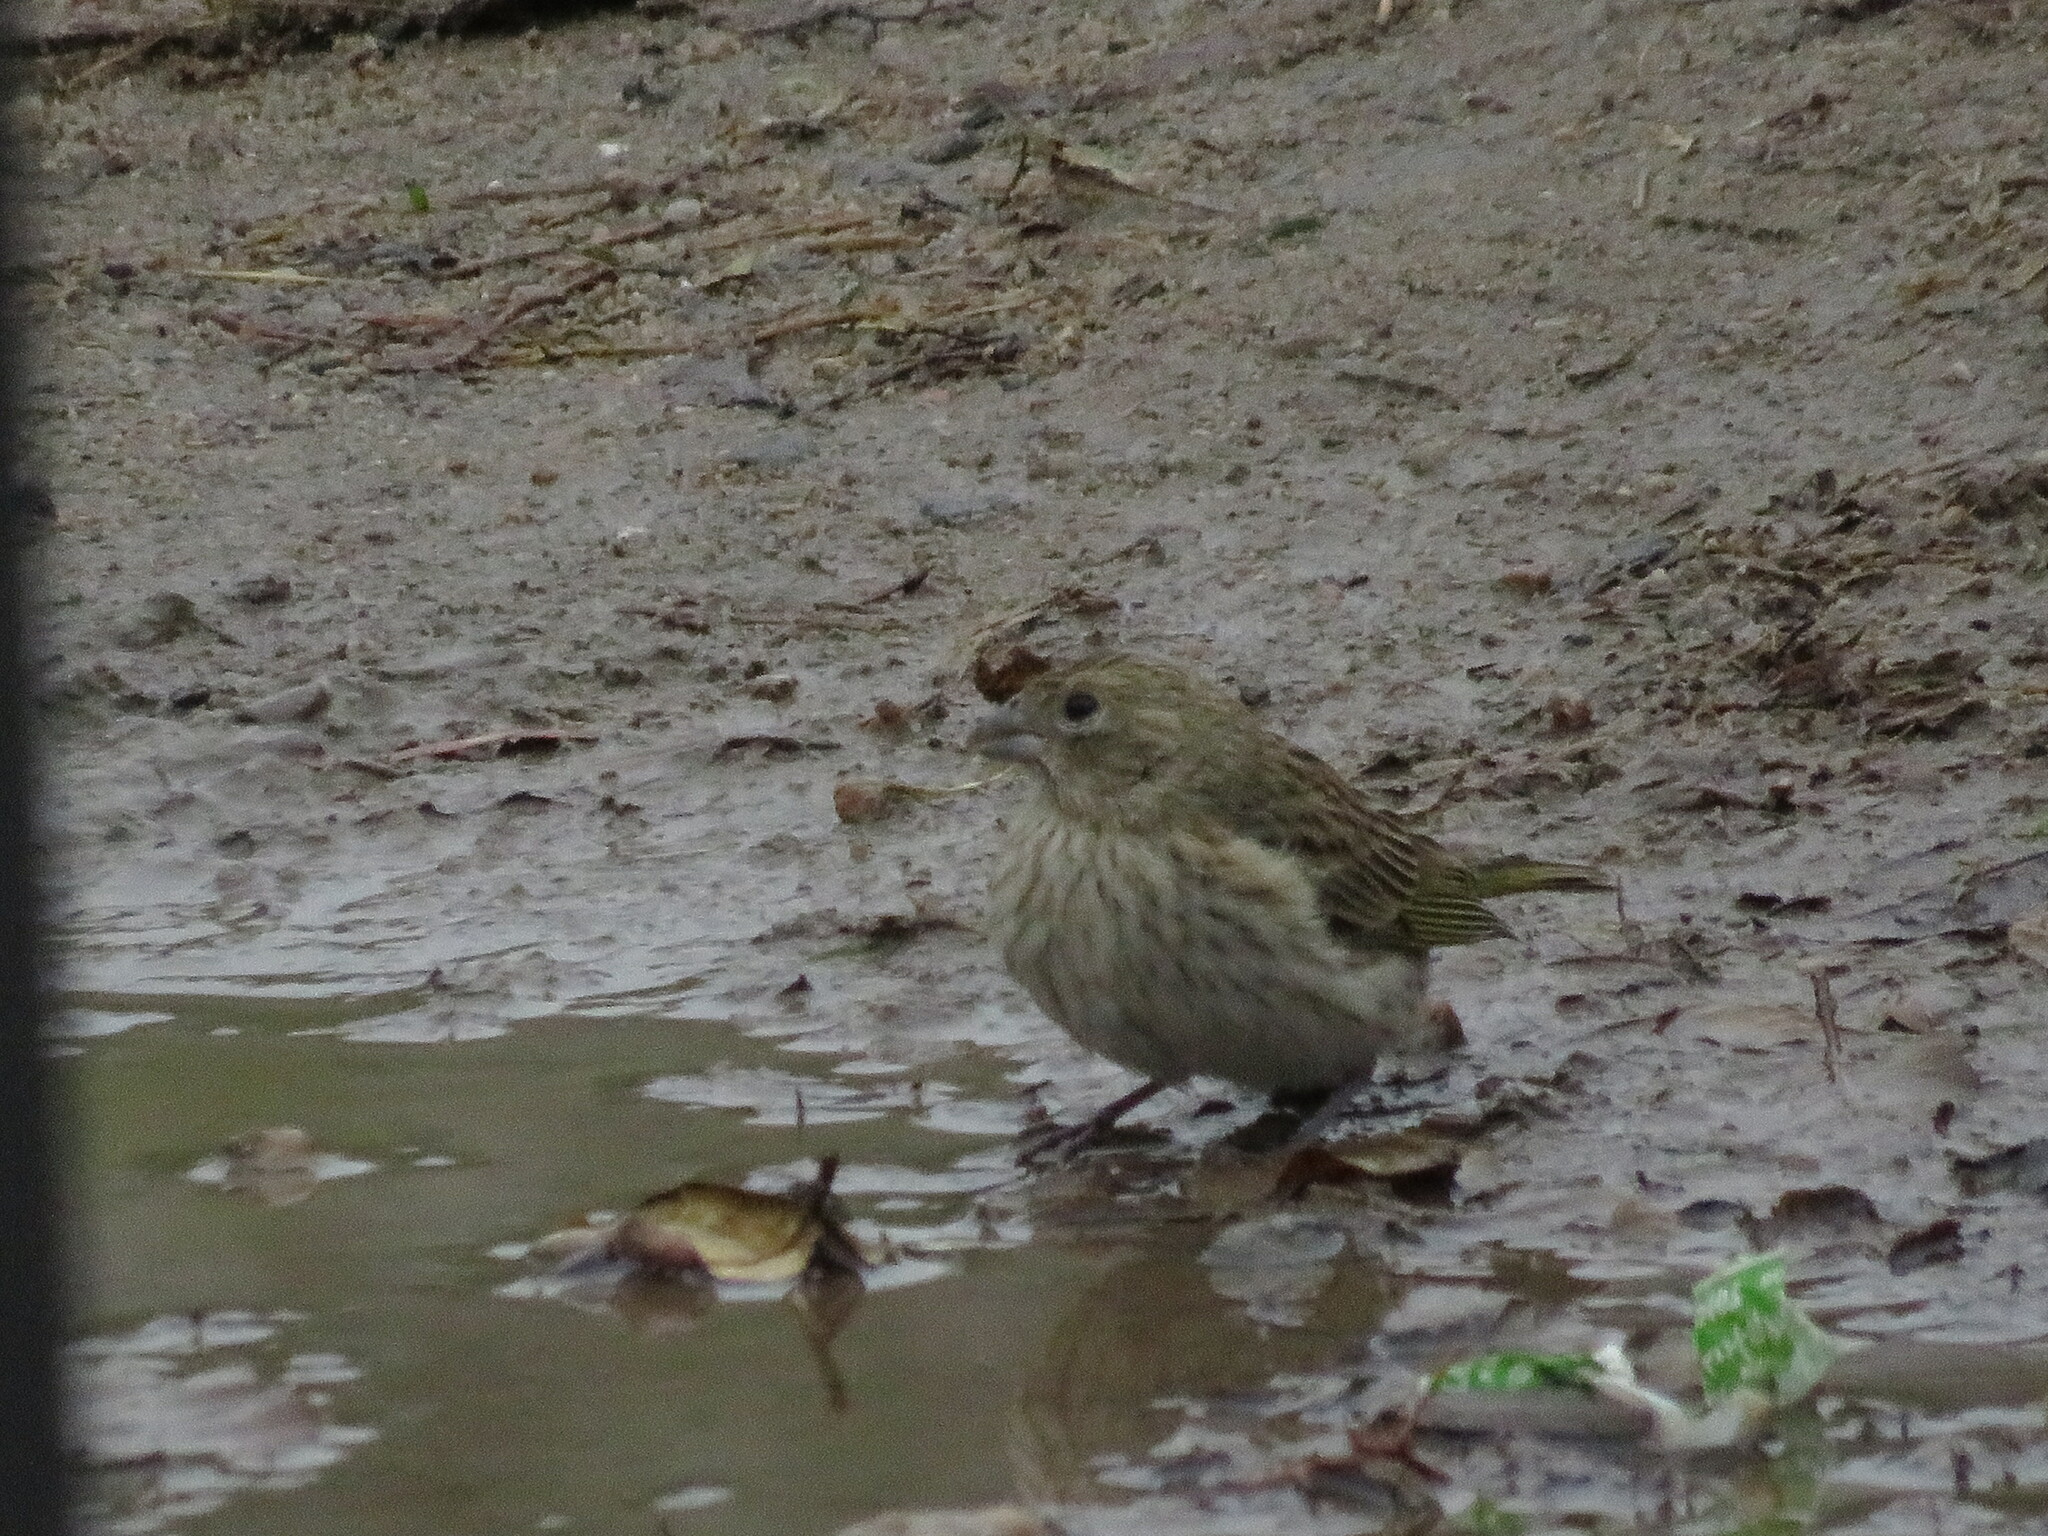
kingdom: Animalia
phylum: Chordata
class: Aves
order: Passeriformes
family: Thraupidae
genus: Sicalis
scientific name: Sicalis flaveola
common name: Saffron finch
